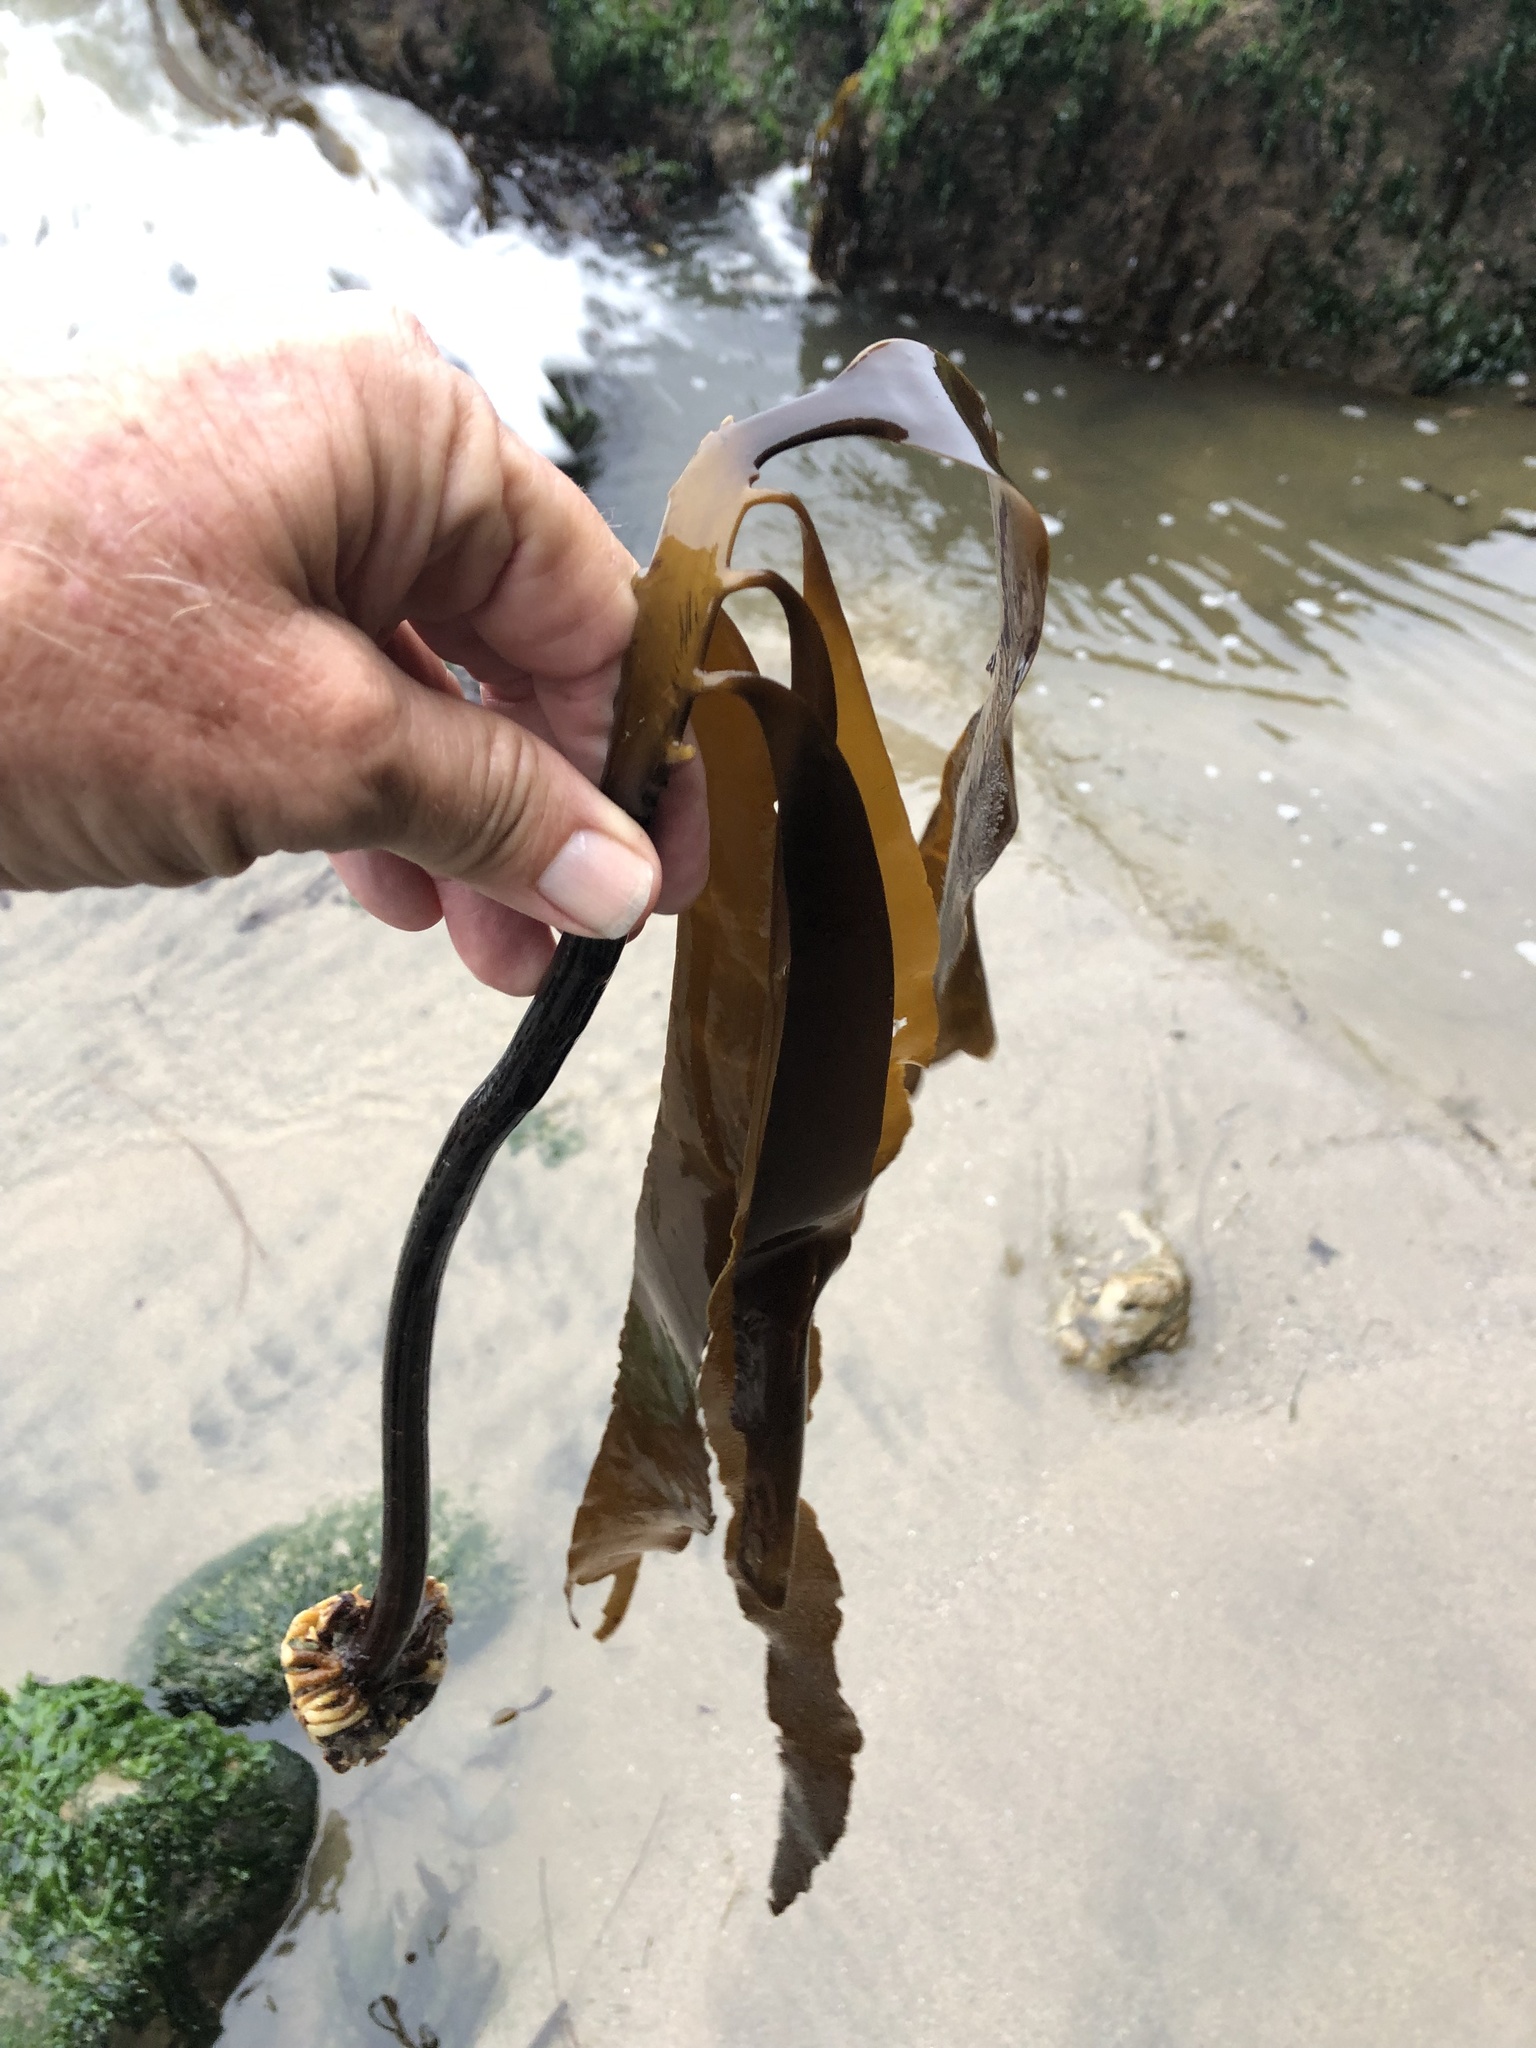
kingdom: Chromista
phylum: Ochrophyta
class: Phaeophyceae
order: Laminariales
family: Alariaceae
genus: Pterygophora
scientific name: Pterygophora californica
